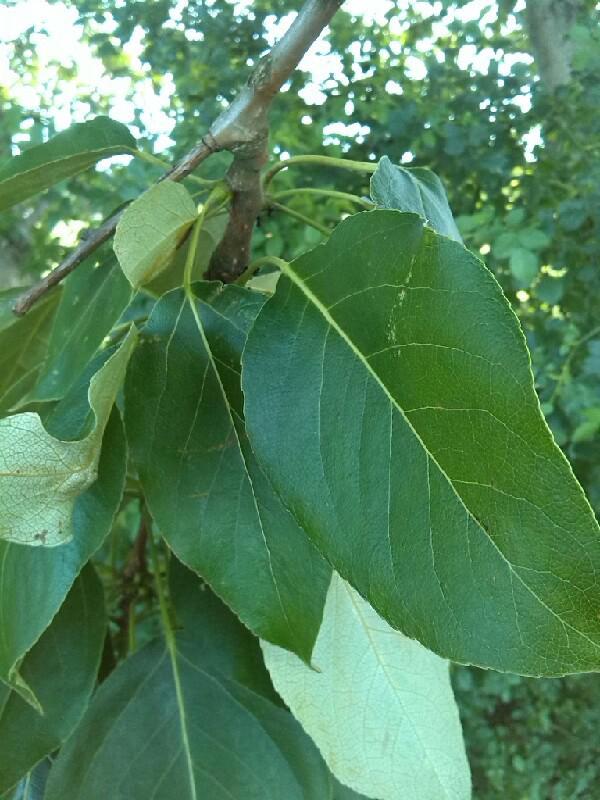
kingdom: Plantae
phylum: Tracheophyta
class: Magnoliopsida
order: Malpighiales
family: Salicaceae
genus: Populus
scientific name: Populus
